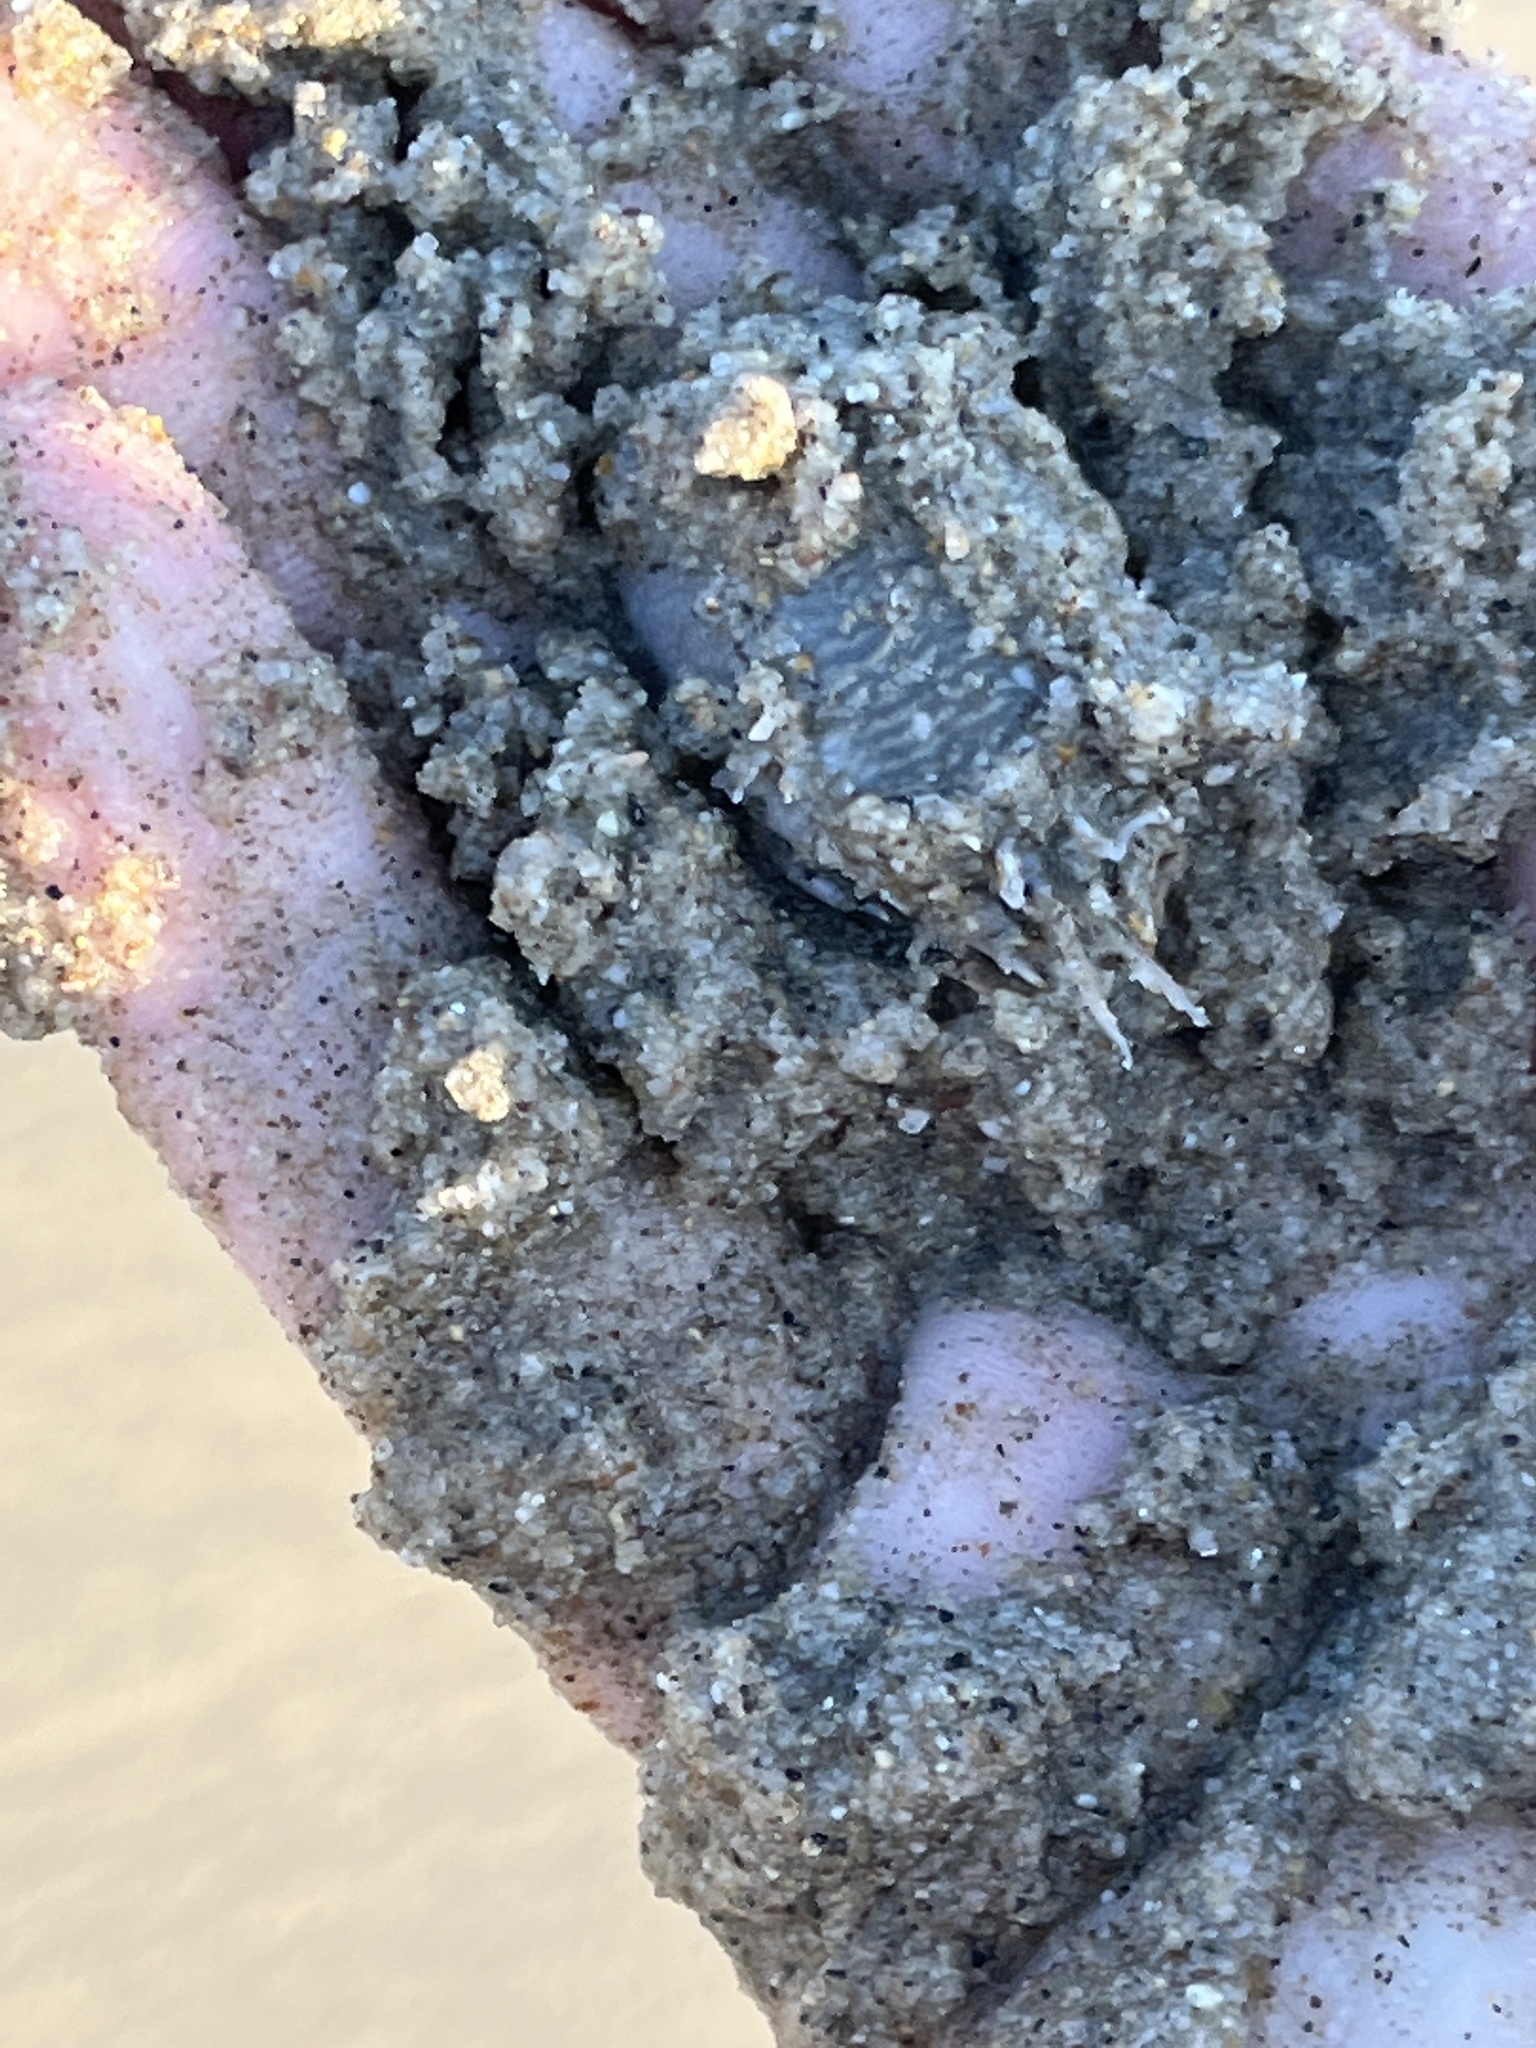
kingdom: Animalia
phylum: Arthropoda
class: Malacostraca
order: Decapoda
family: Hippidae
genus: Emerita
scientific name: Emerita analoga
